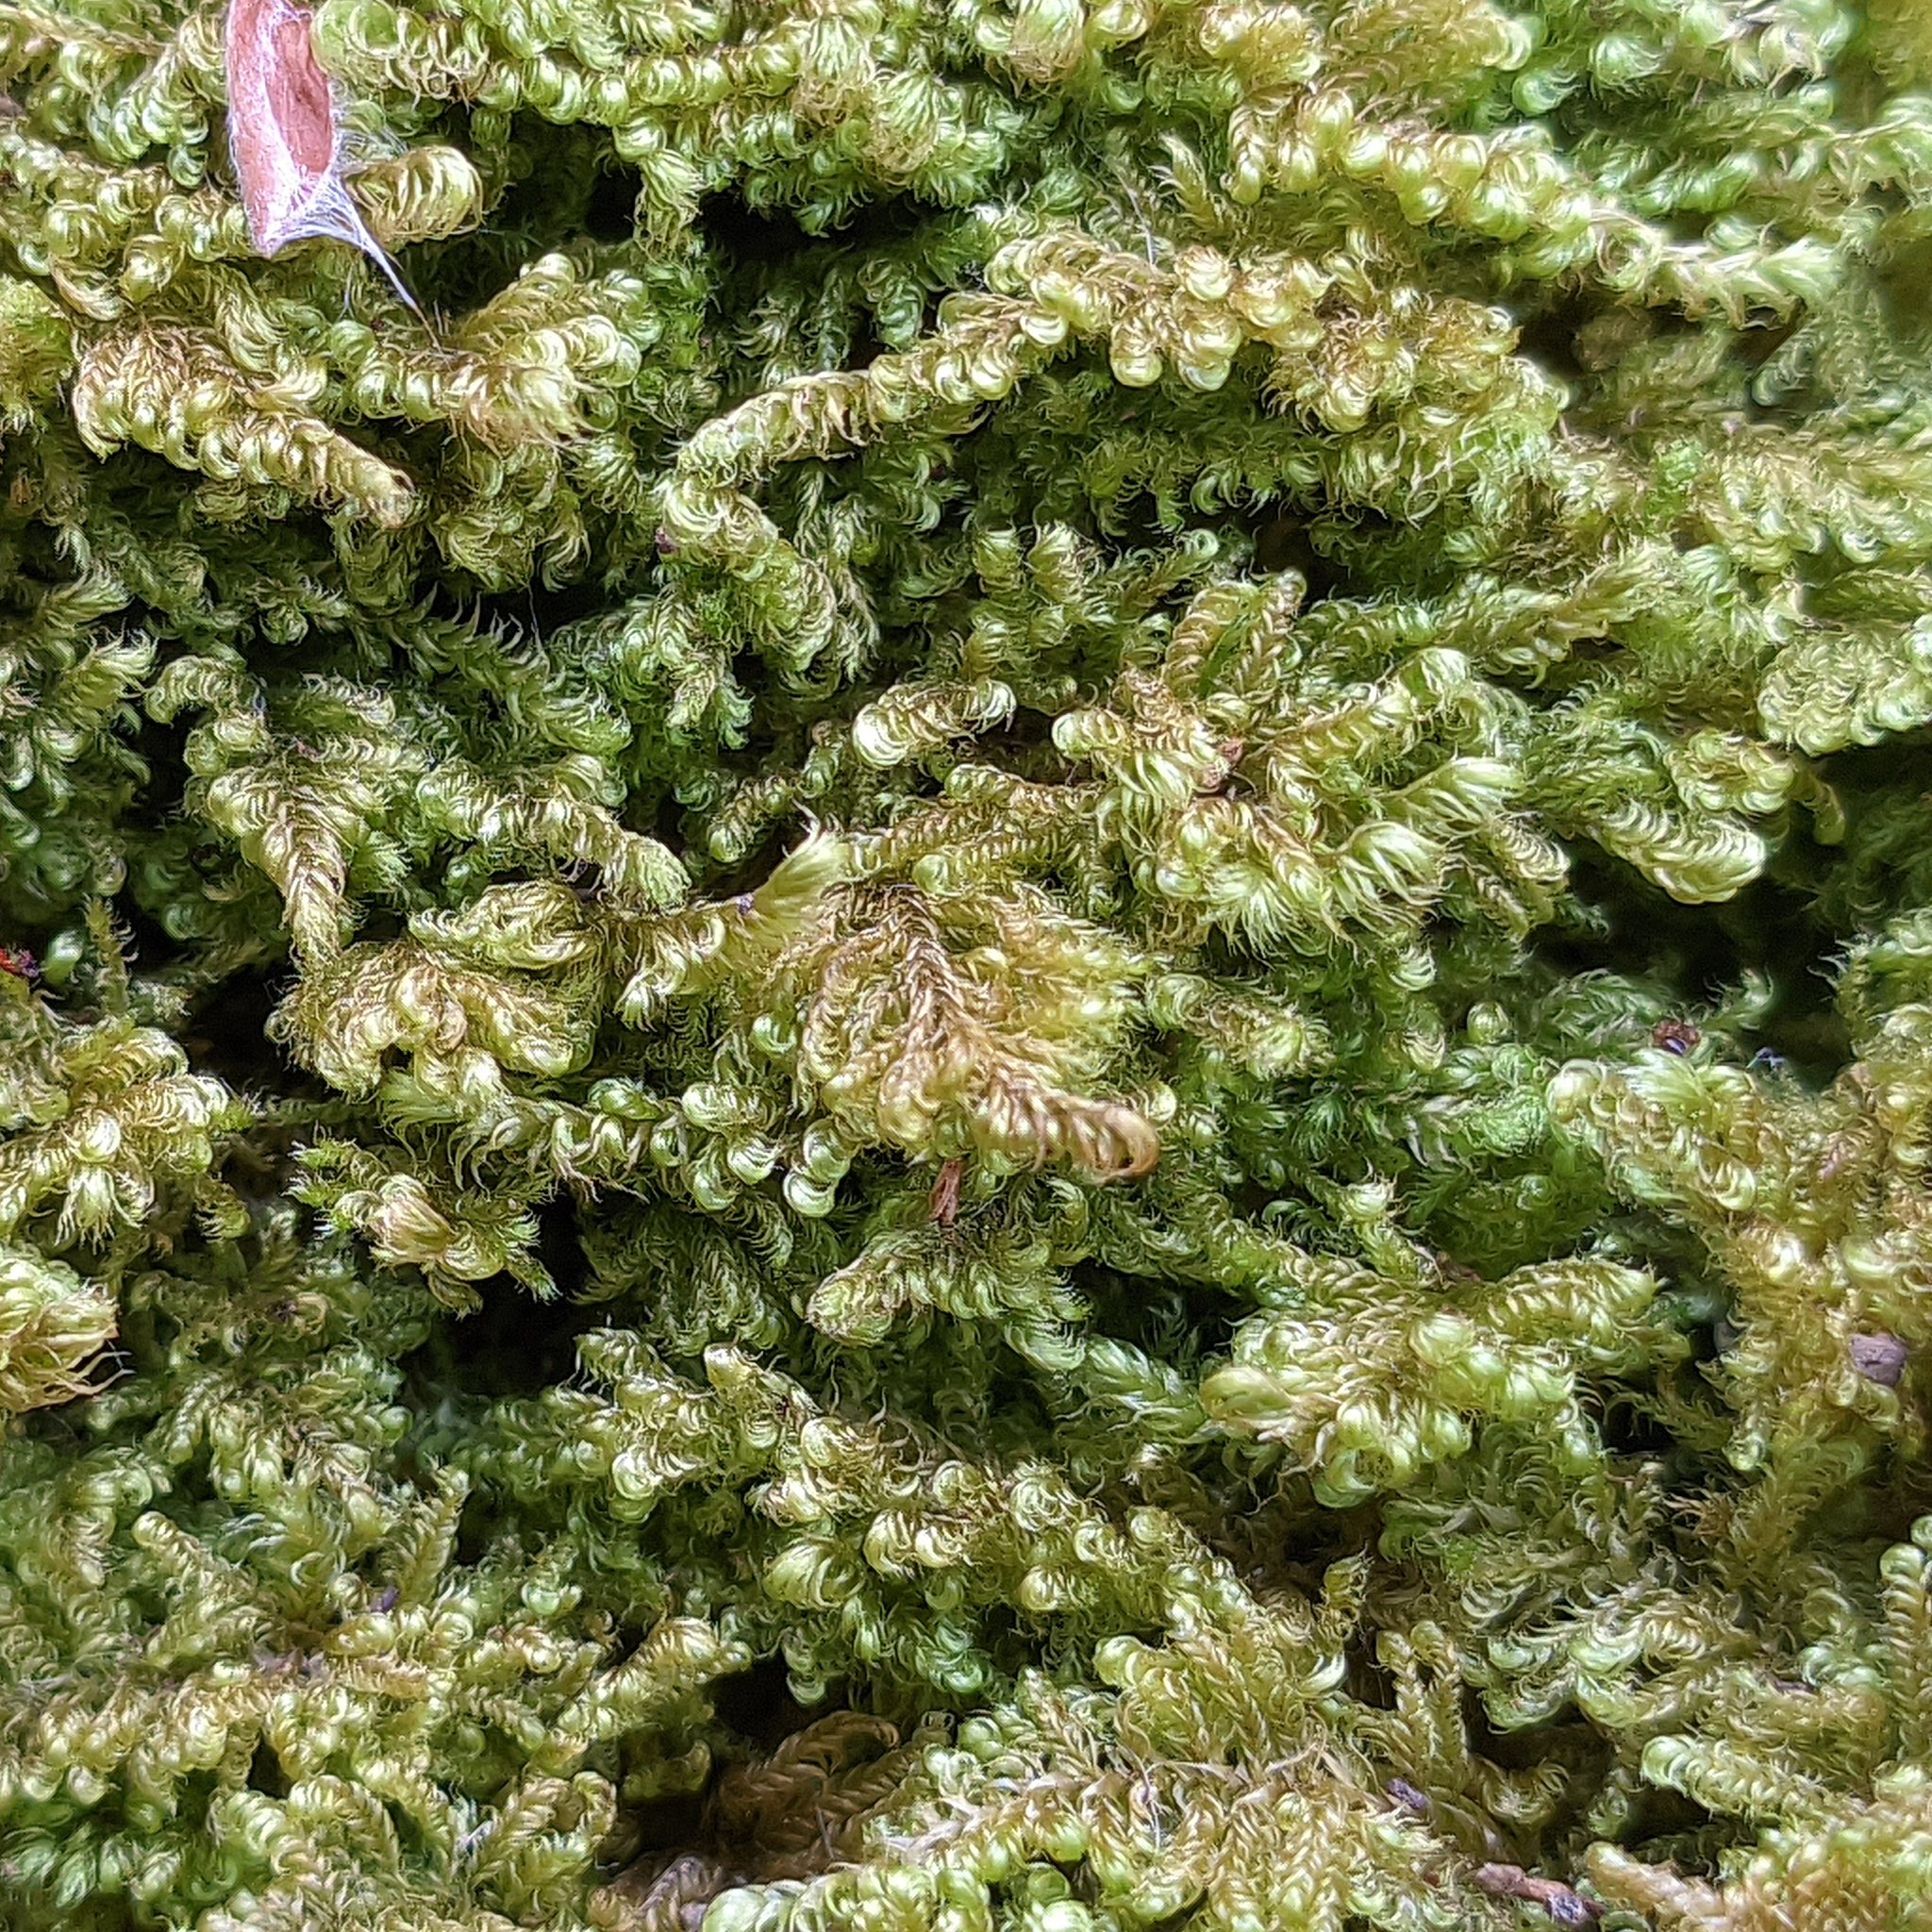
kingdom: Plantae
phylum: Bryophyta
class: Bryopsida
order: Hypnales
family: Myuriaceae
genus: Ctenidium
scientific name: Ctenidium molluscum
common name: Chalk comb-moss
